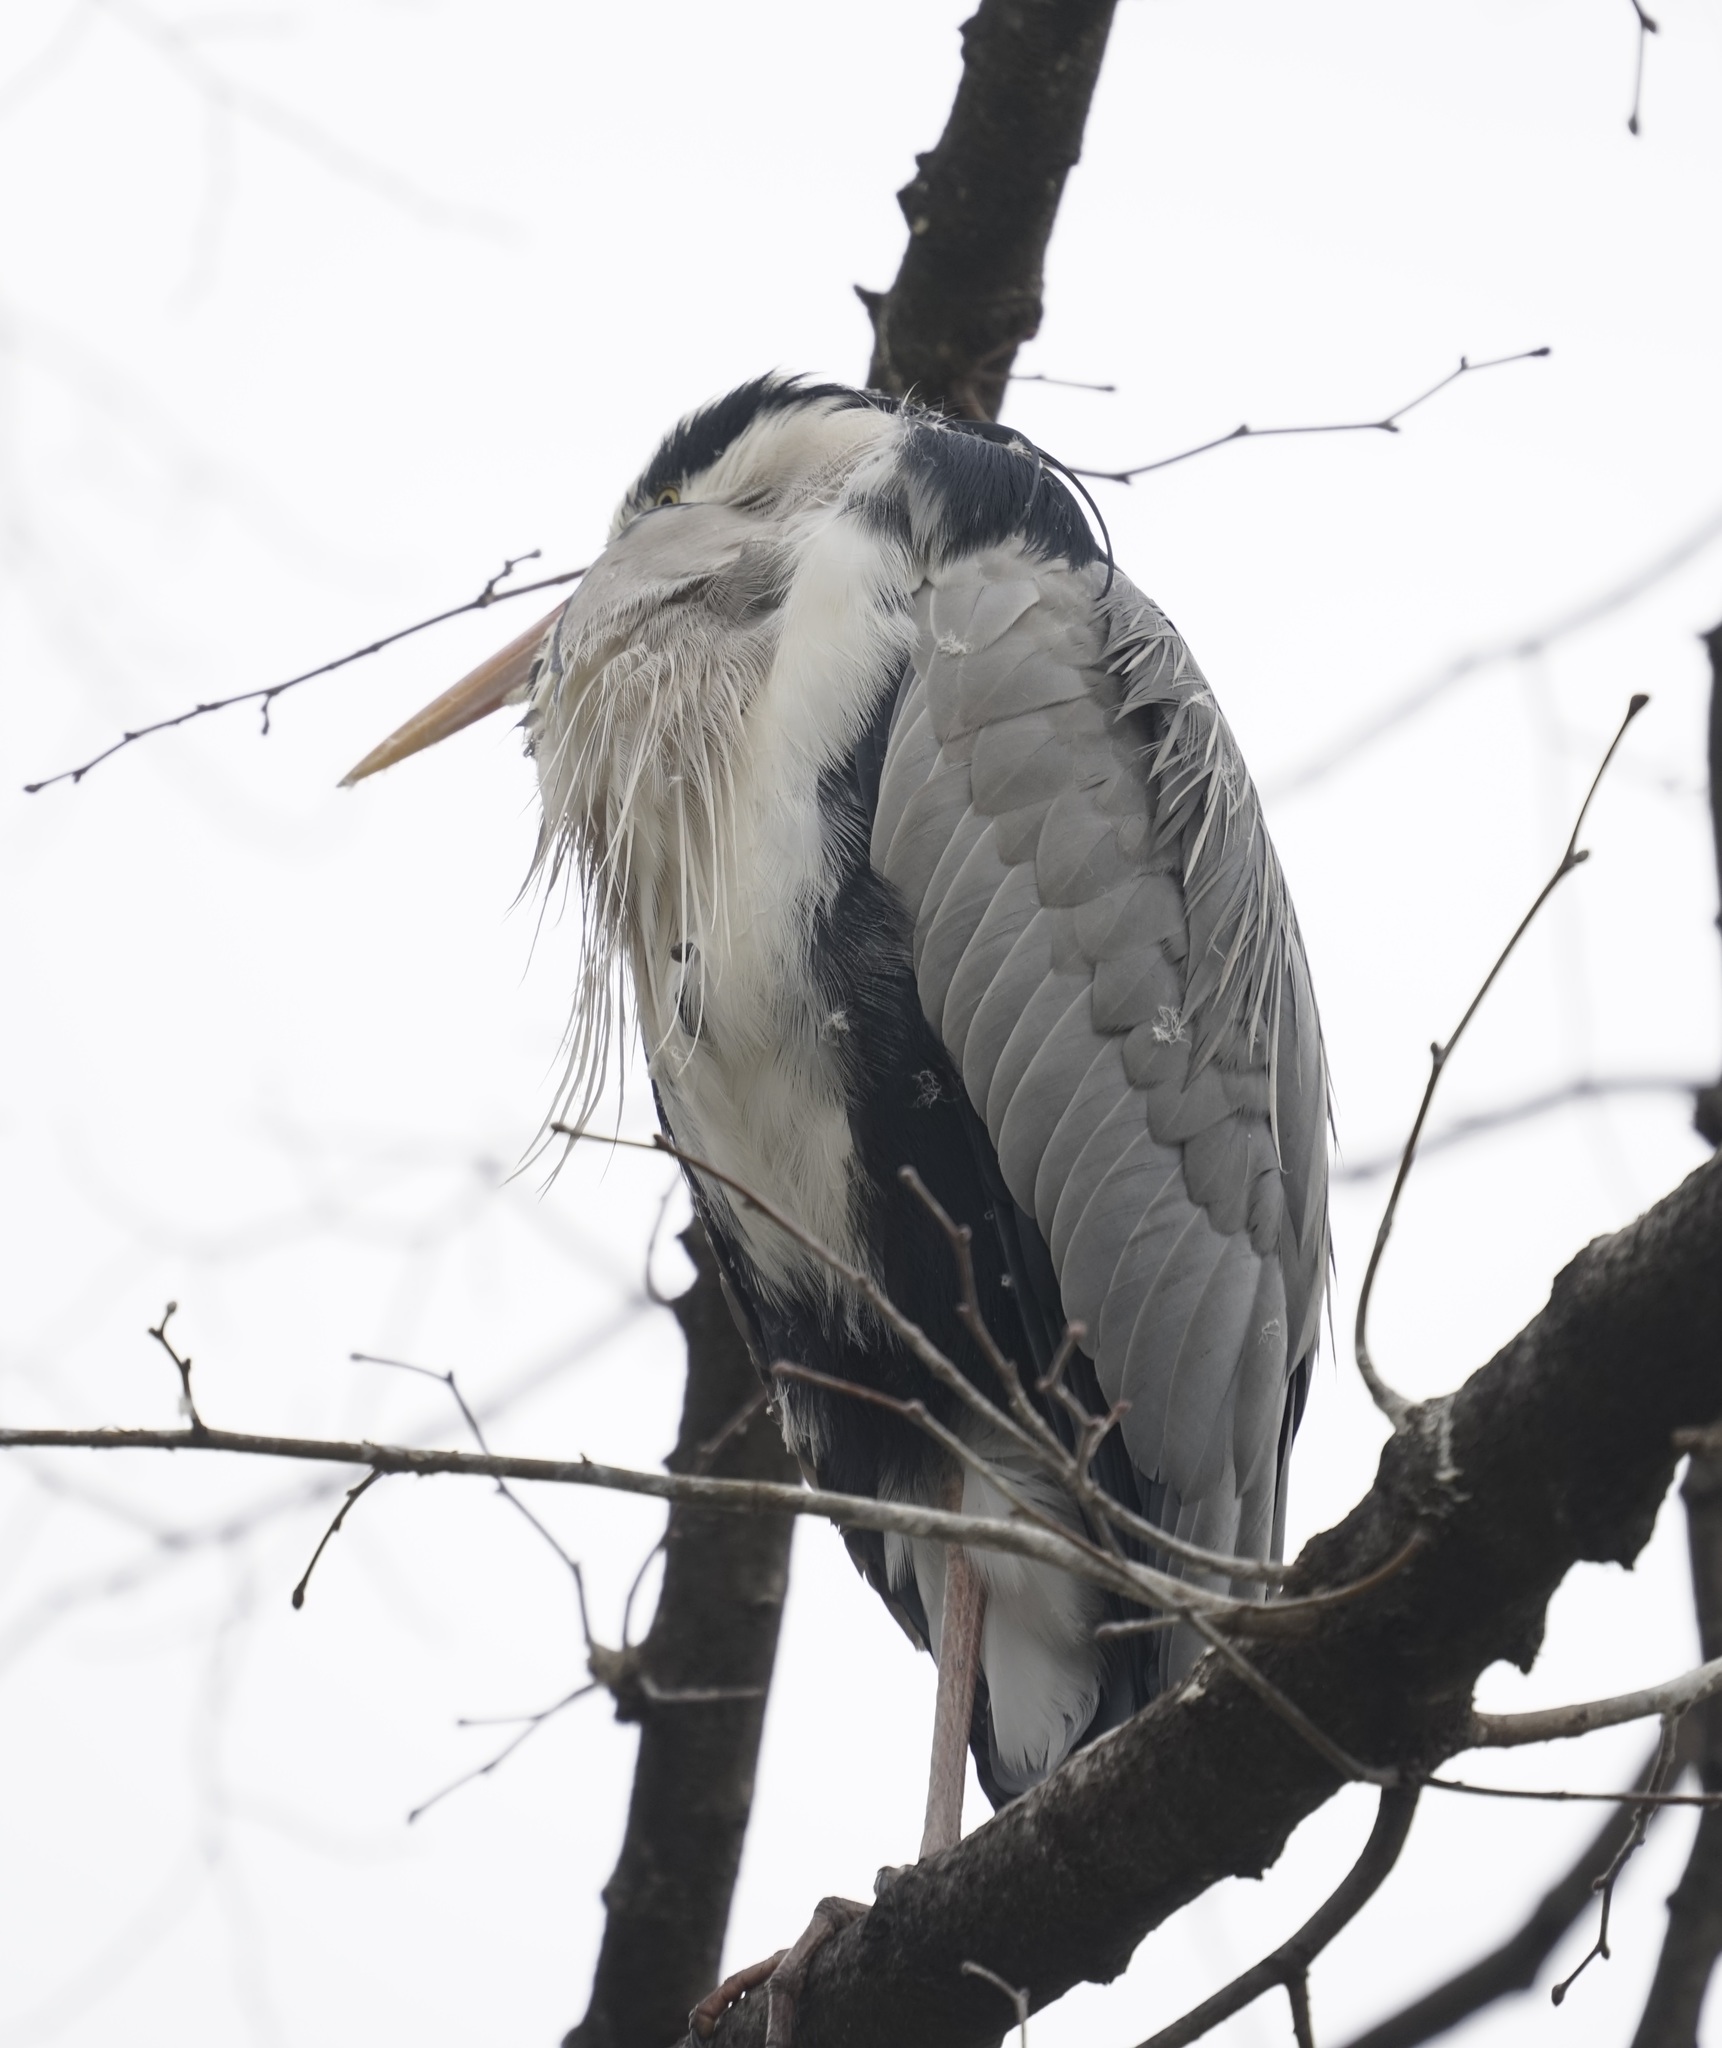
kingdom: Animalia
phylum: Chordata
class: Aves
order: Pelecaniformes
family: Ardeidae
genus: Ardea
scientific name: Ardea cinerea
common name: Grey heron
